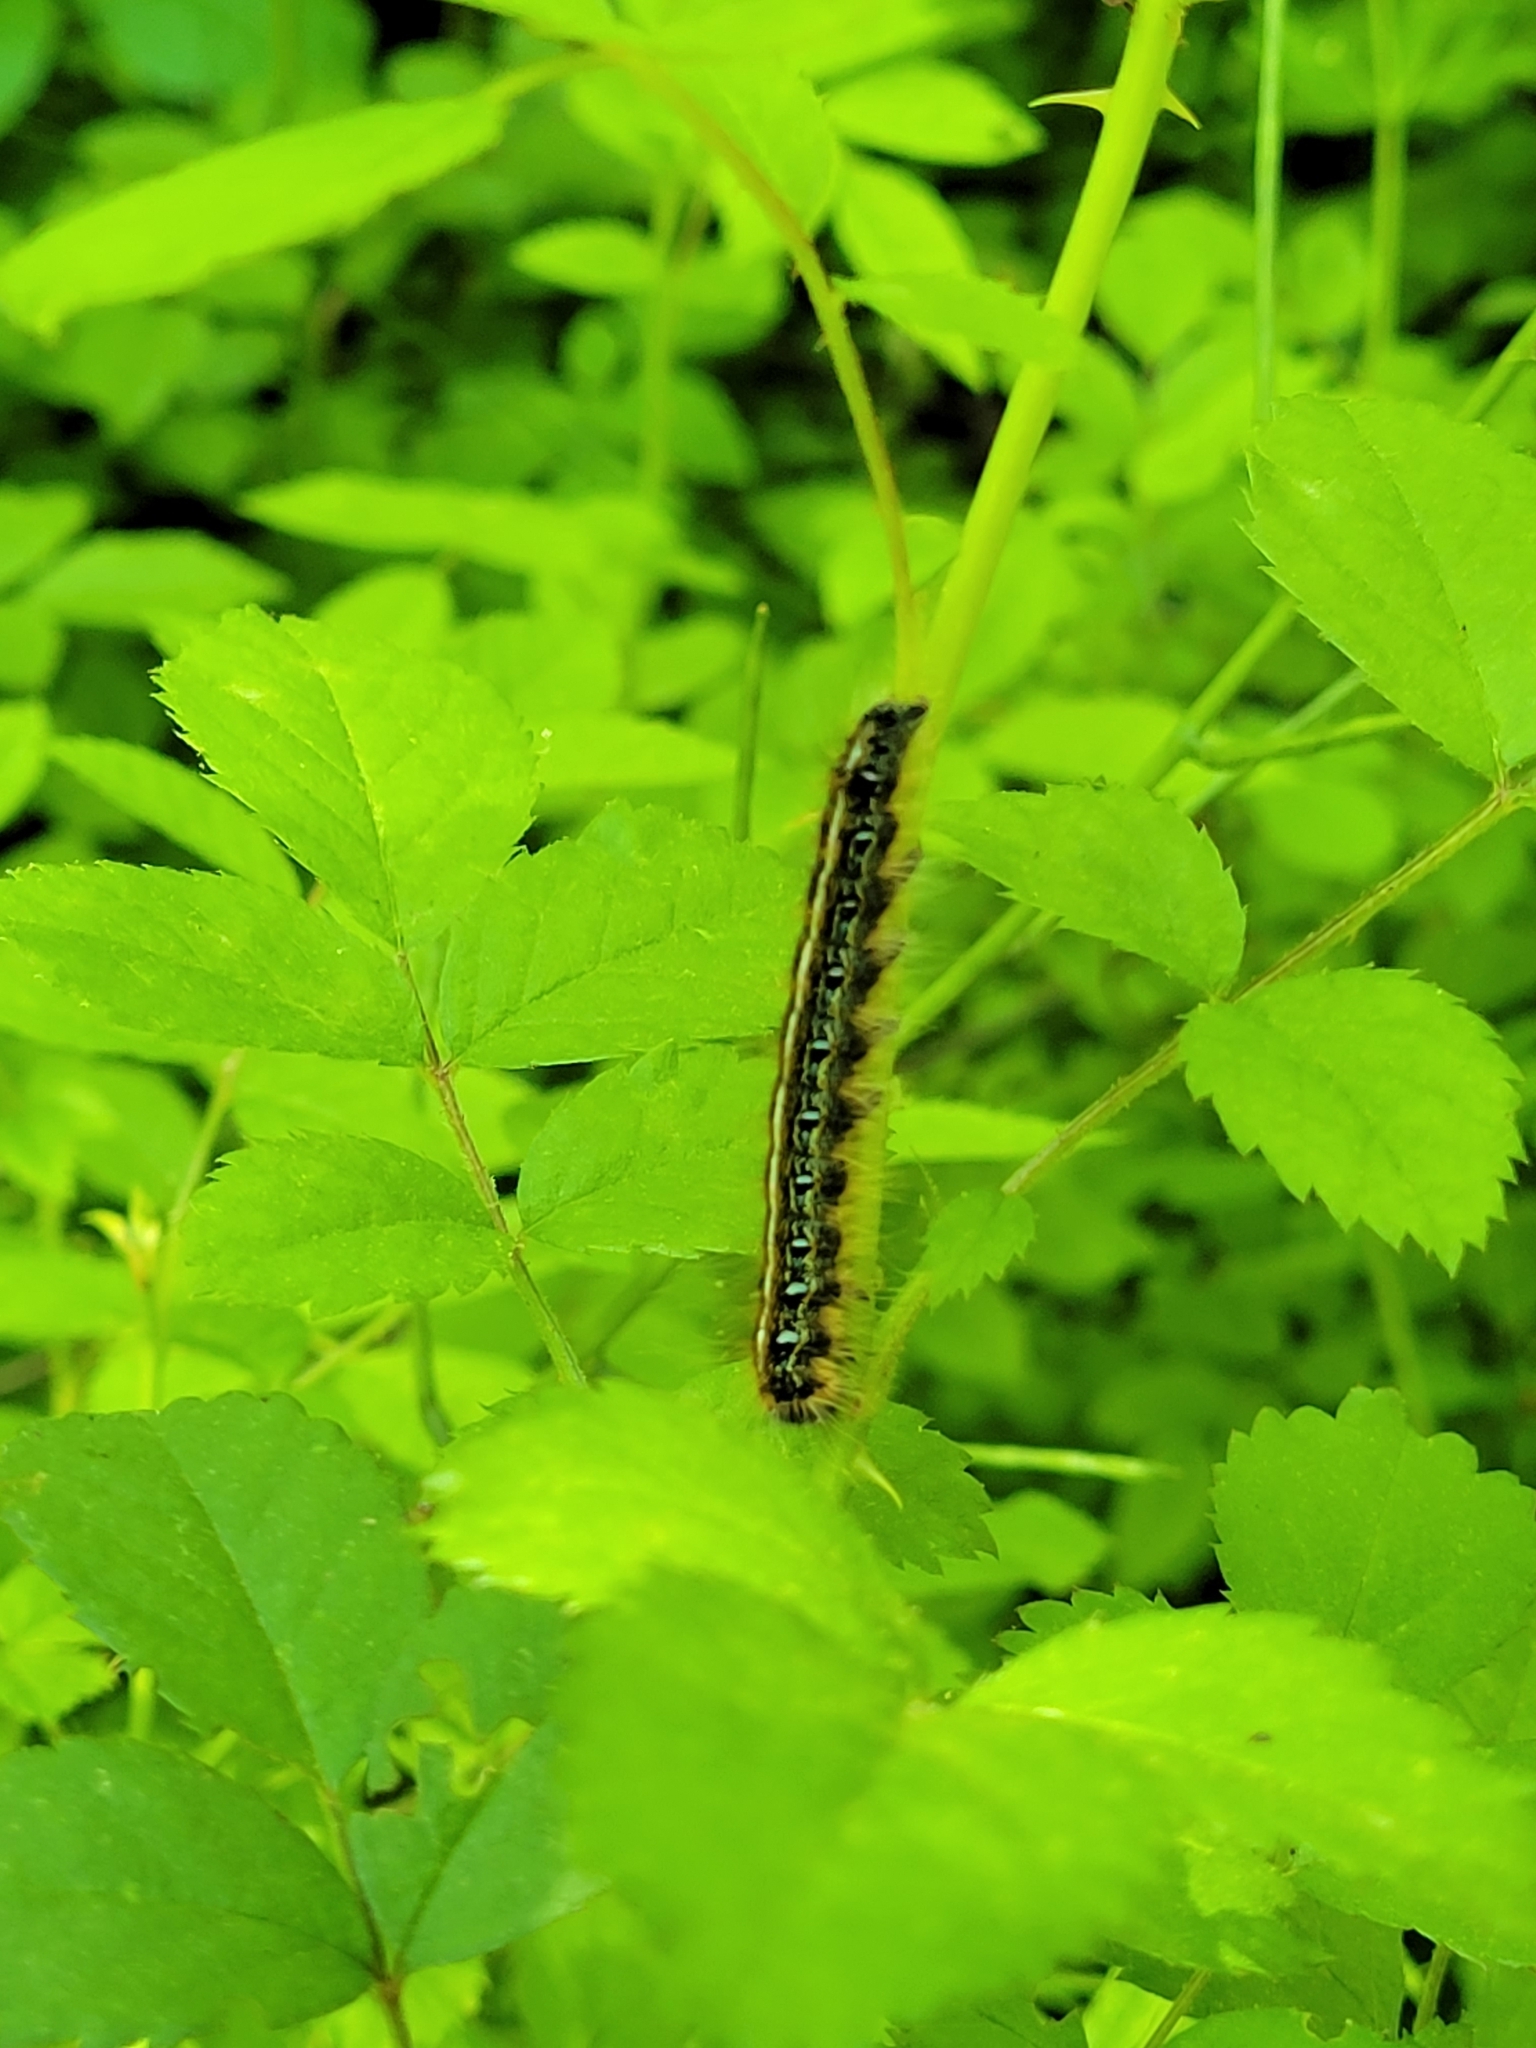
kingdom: Animalia
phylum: Arthropoda
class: Insecta
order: Lepidoptera
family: Lasiocampidae
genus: Malacosoma
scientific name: Malacosoma americana
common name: Eastern tent caterpillar moth
